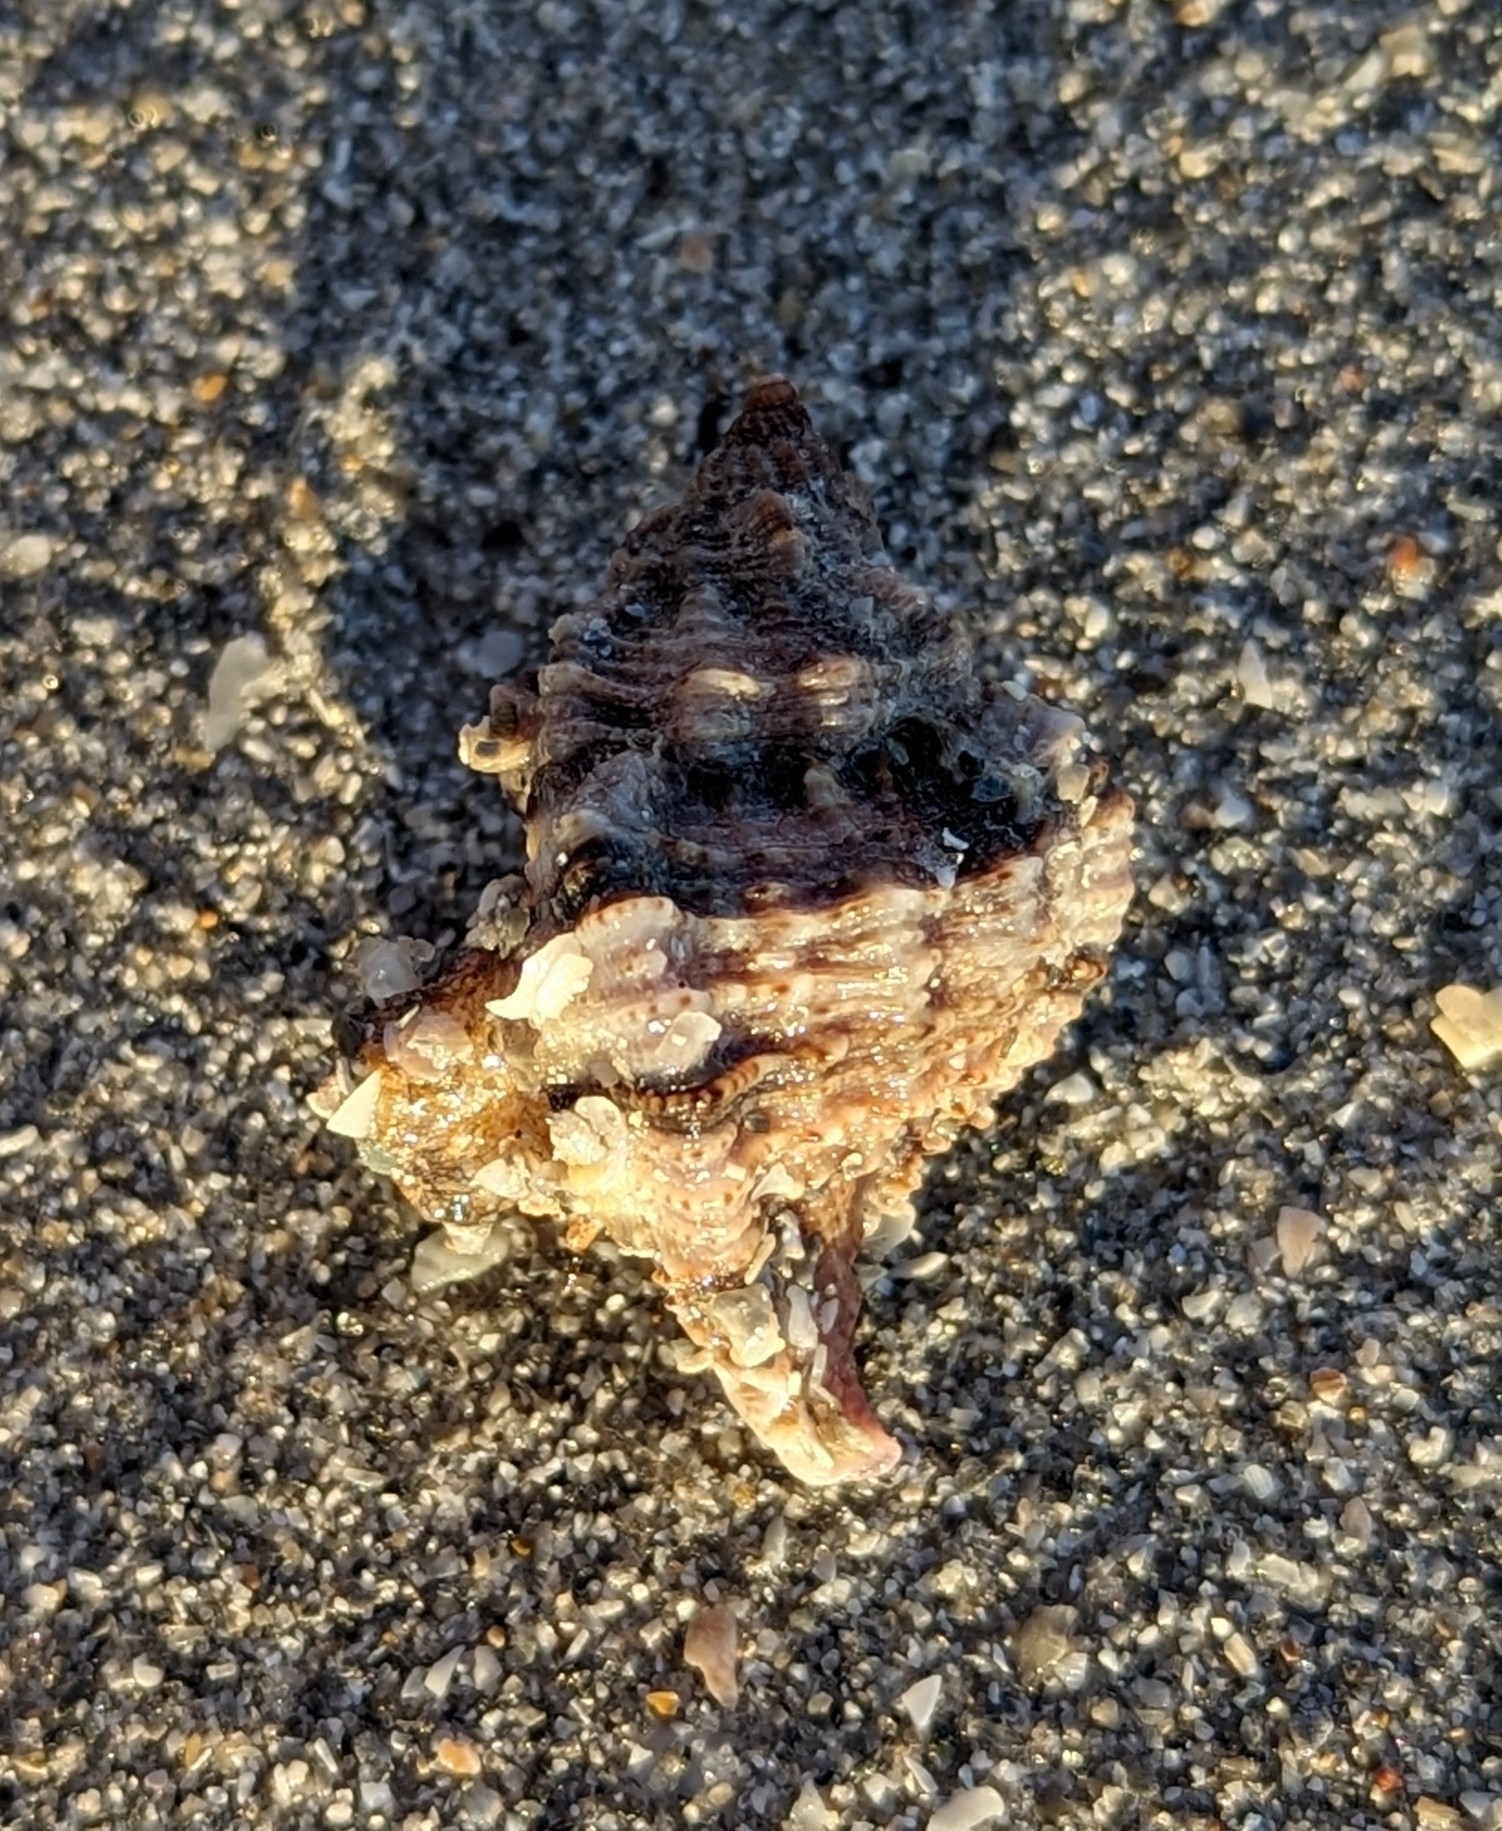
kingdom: Animalia
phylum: Mollusca
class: Gastropoda
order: Neogastropoda
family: Muricidae
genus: Phyllonotus
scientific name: Phyllonotus pomum
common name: Apple murex
